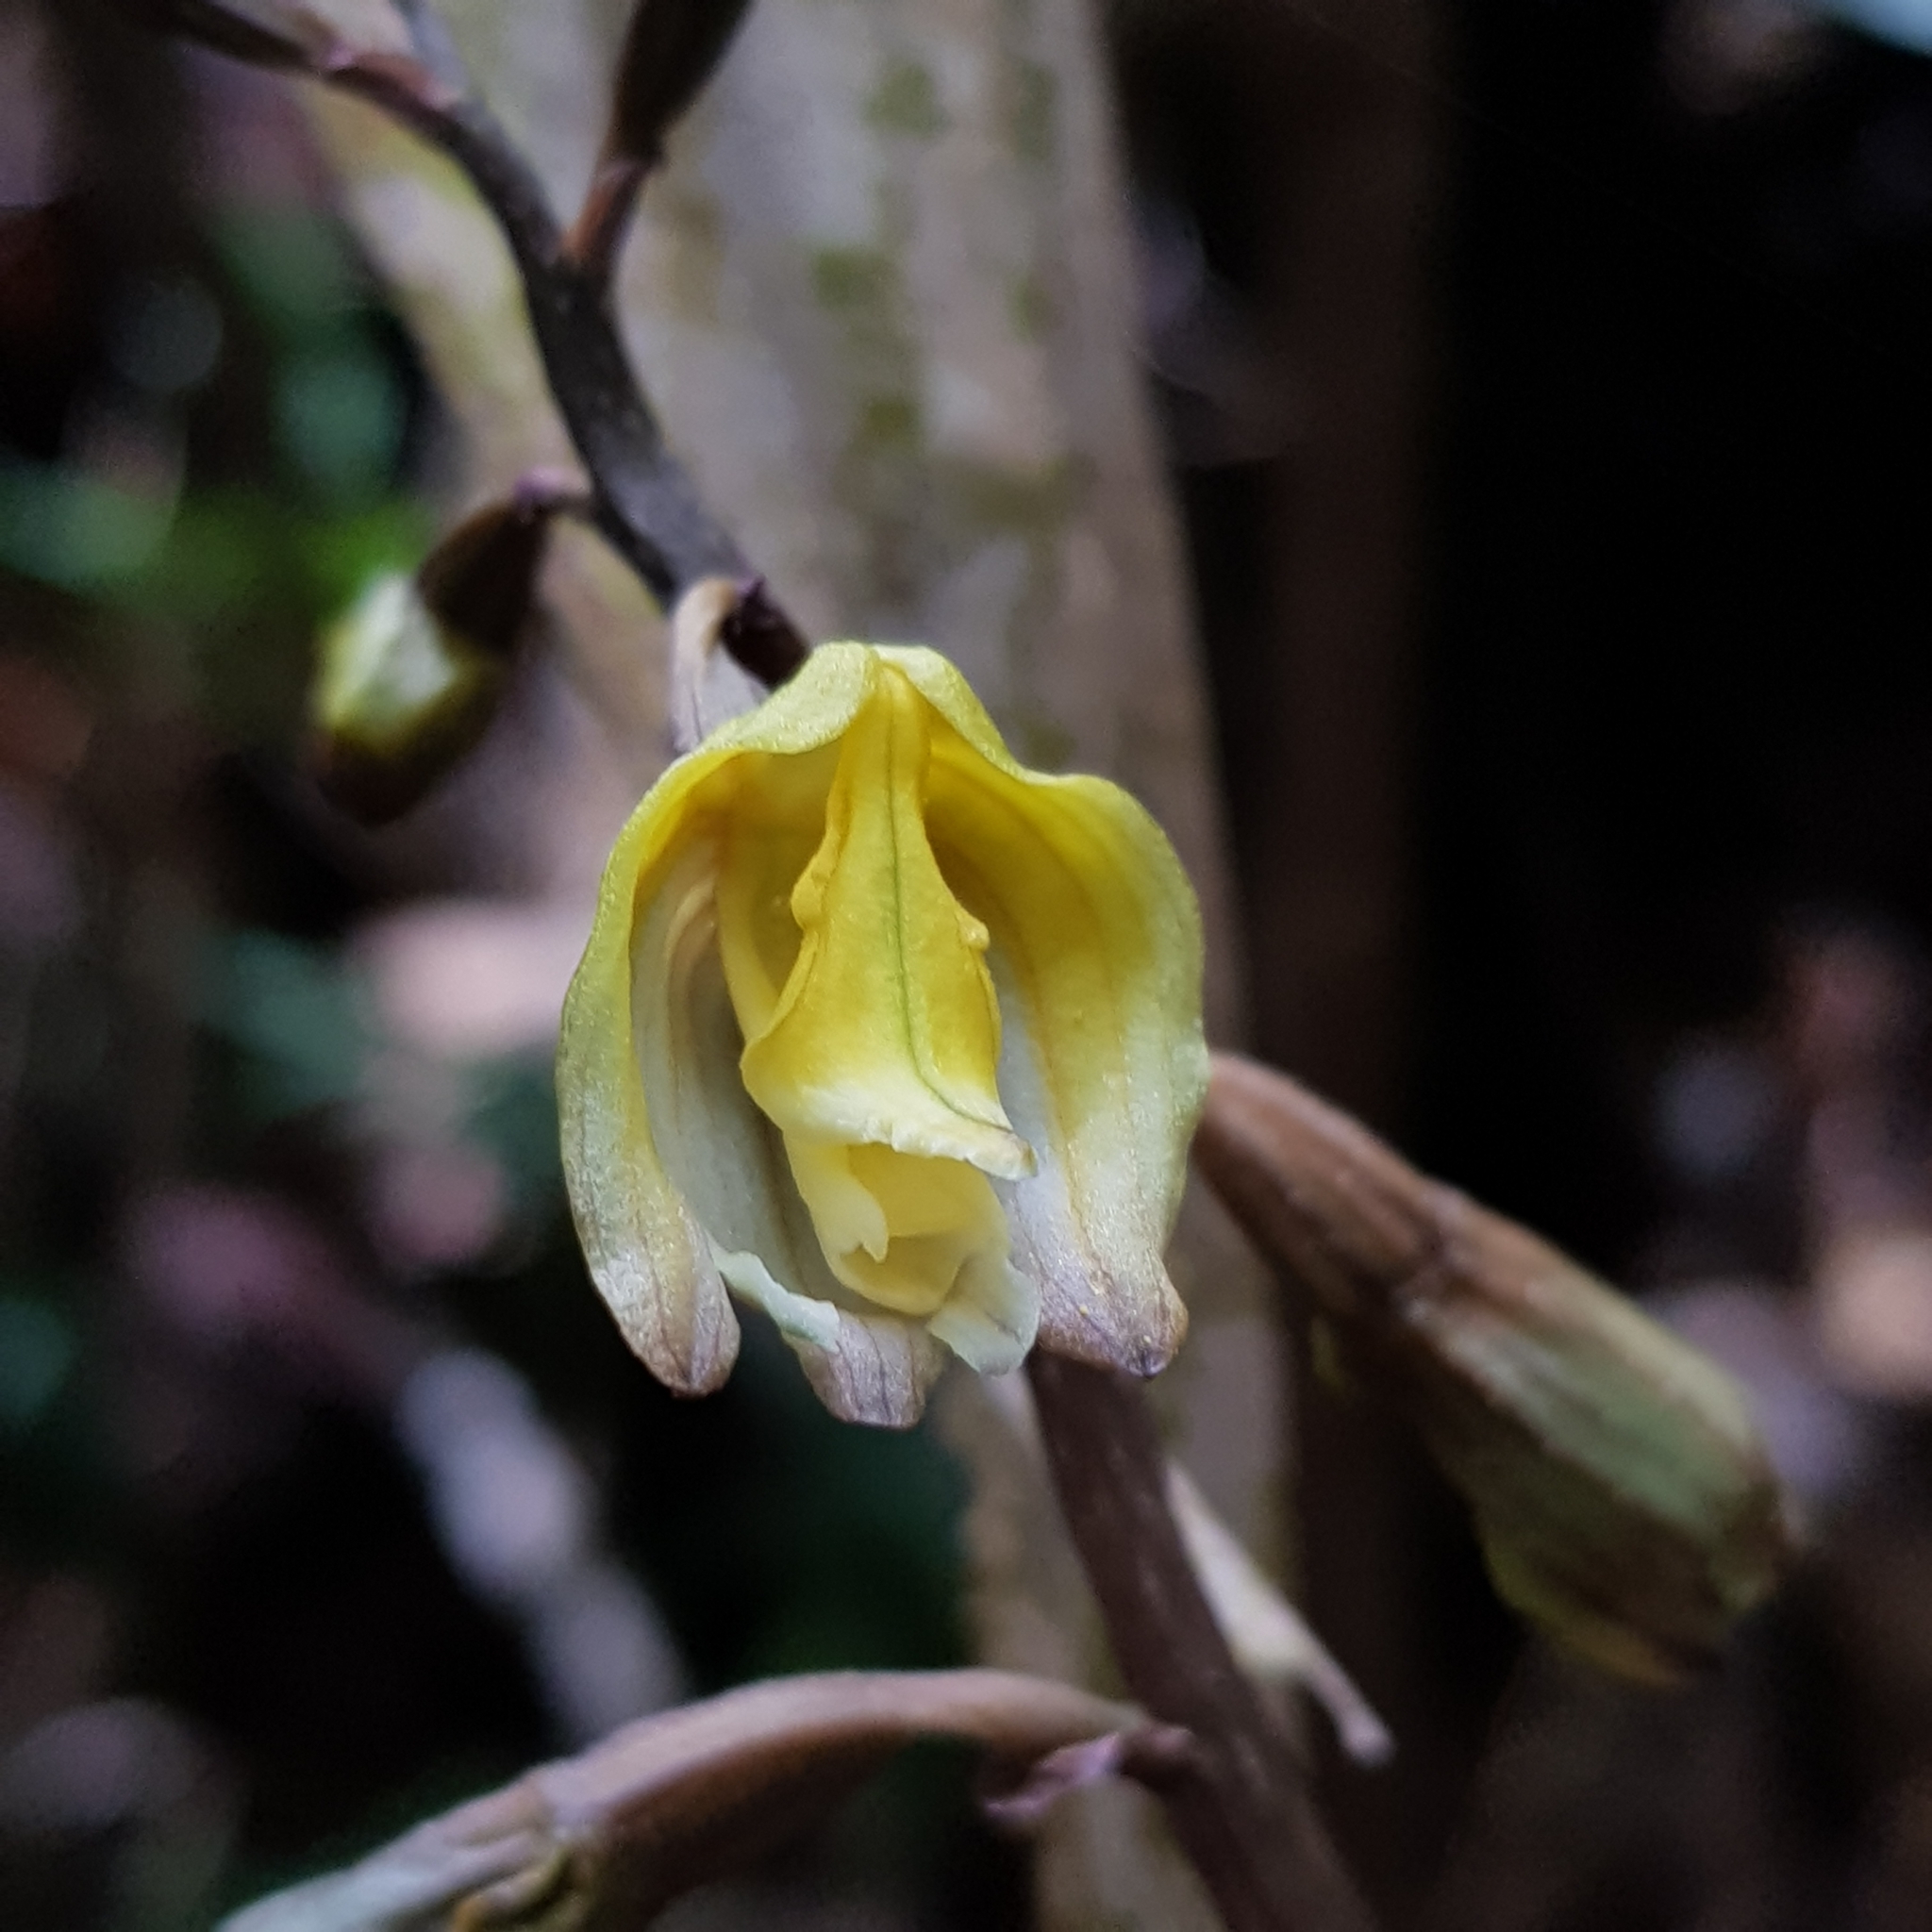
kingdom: Plantae
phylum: Tracheophyta
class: Liliopsida
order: Asparagales
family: Orchidaceae
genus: Gastrodia
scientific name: Gastrodia javanica
